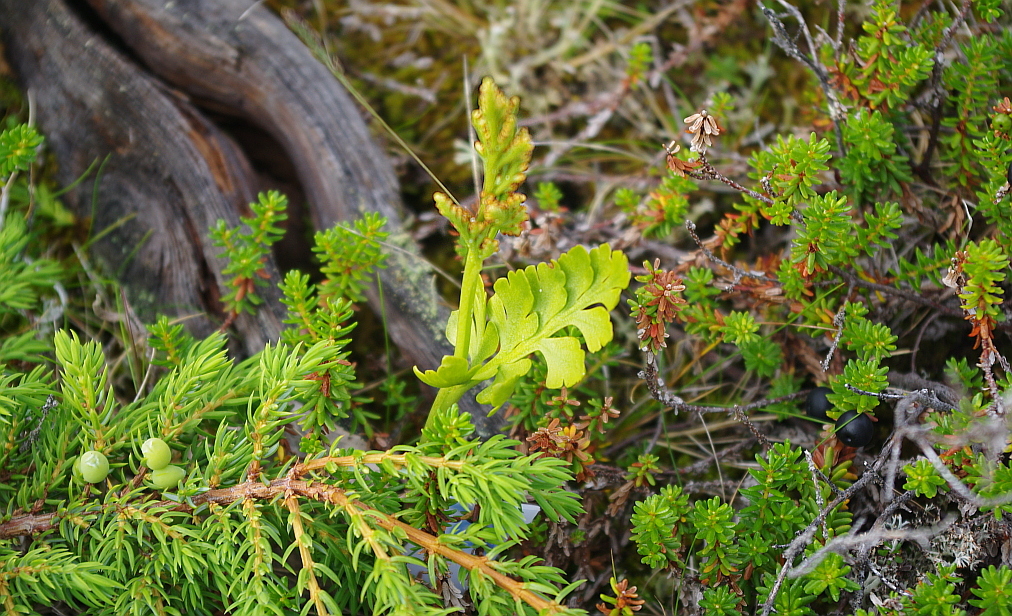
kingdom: Plantae
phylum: Tracheophyta
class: Polypodiopsida
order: Ophioglossales
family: Ophioglossaceae
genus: Botrychium
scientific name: Botrychium boreale
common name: Boreal moonwort
